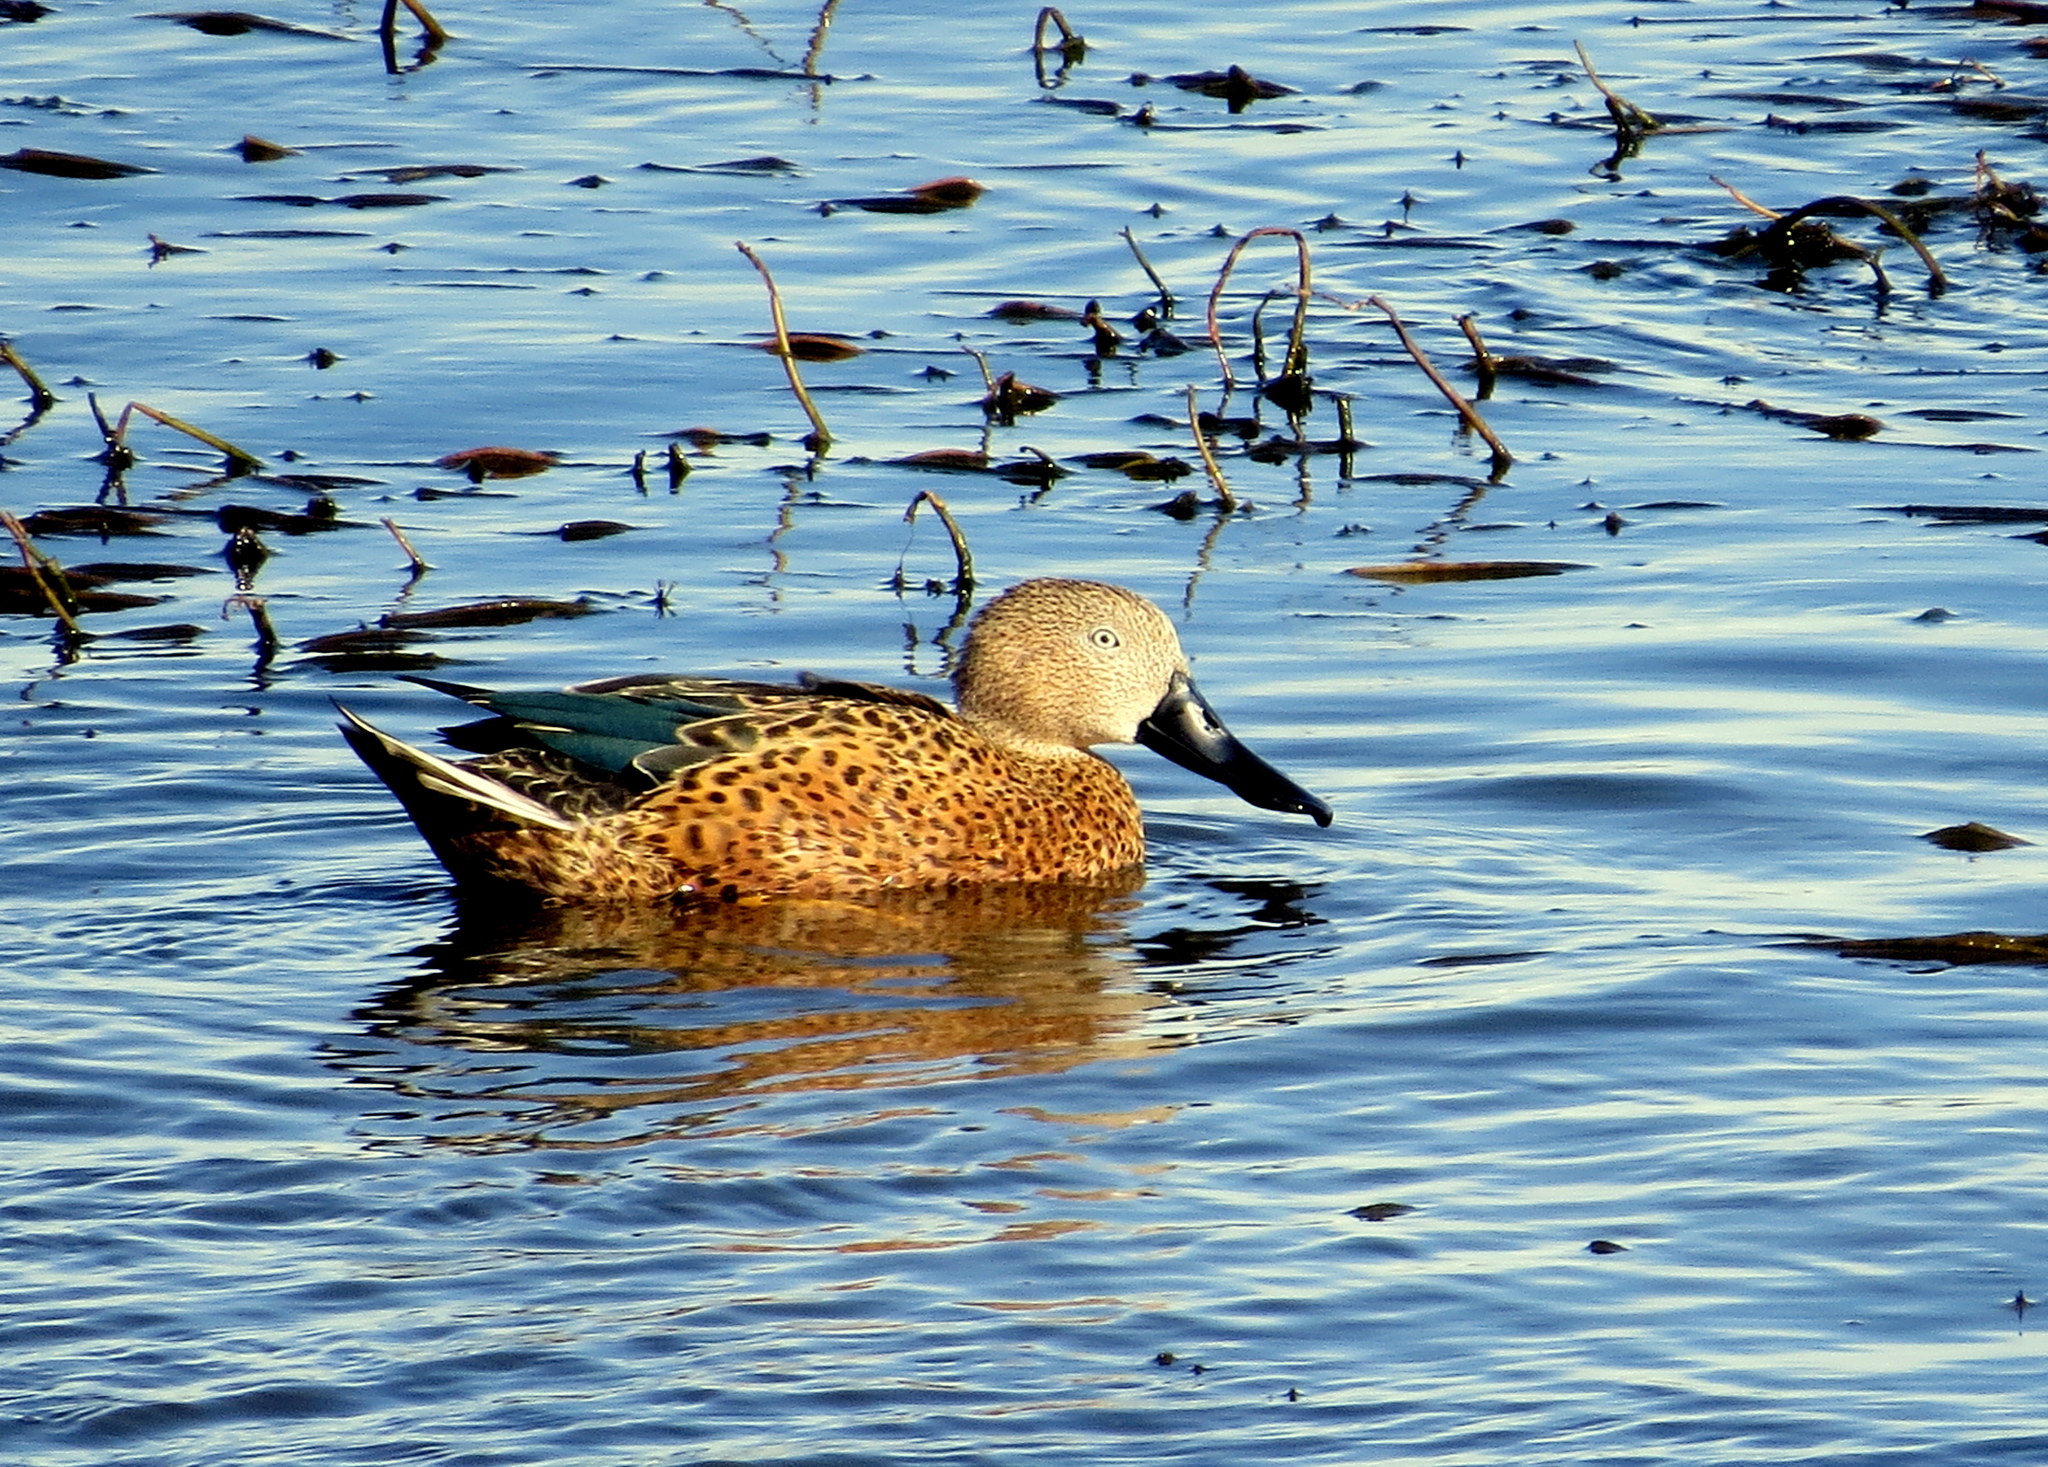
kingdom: Animalia
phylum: Chordata
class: Aves
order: Anseriformes
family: Anatidae
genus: Spatula
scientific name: Spatula platalea
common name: Red shoveler
